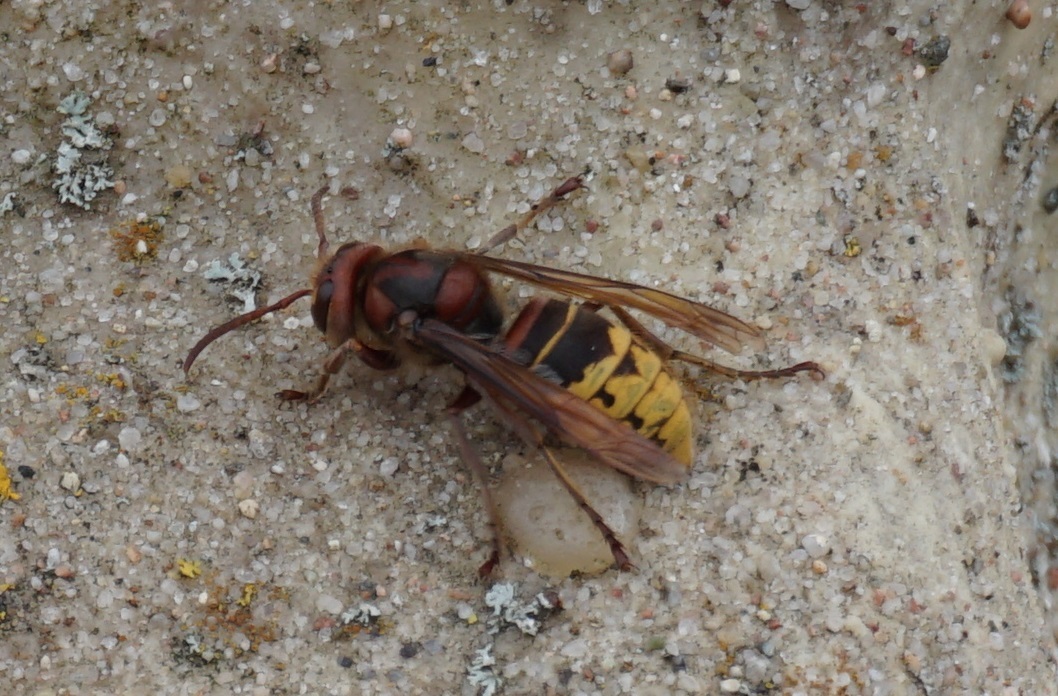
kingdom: Animalia
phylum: Arthropoda
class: Insecta
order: Hymenoptera
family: Vespidae
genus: Vespa
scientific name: Vespa crabro
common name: Hornet
